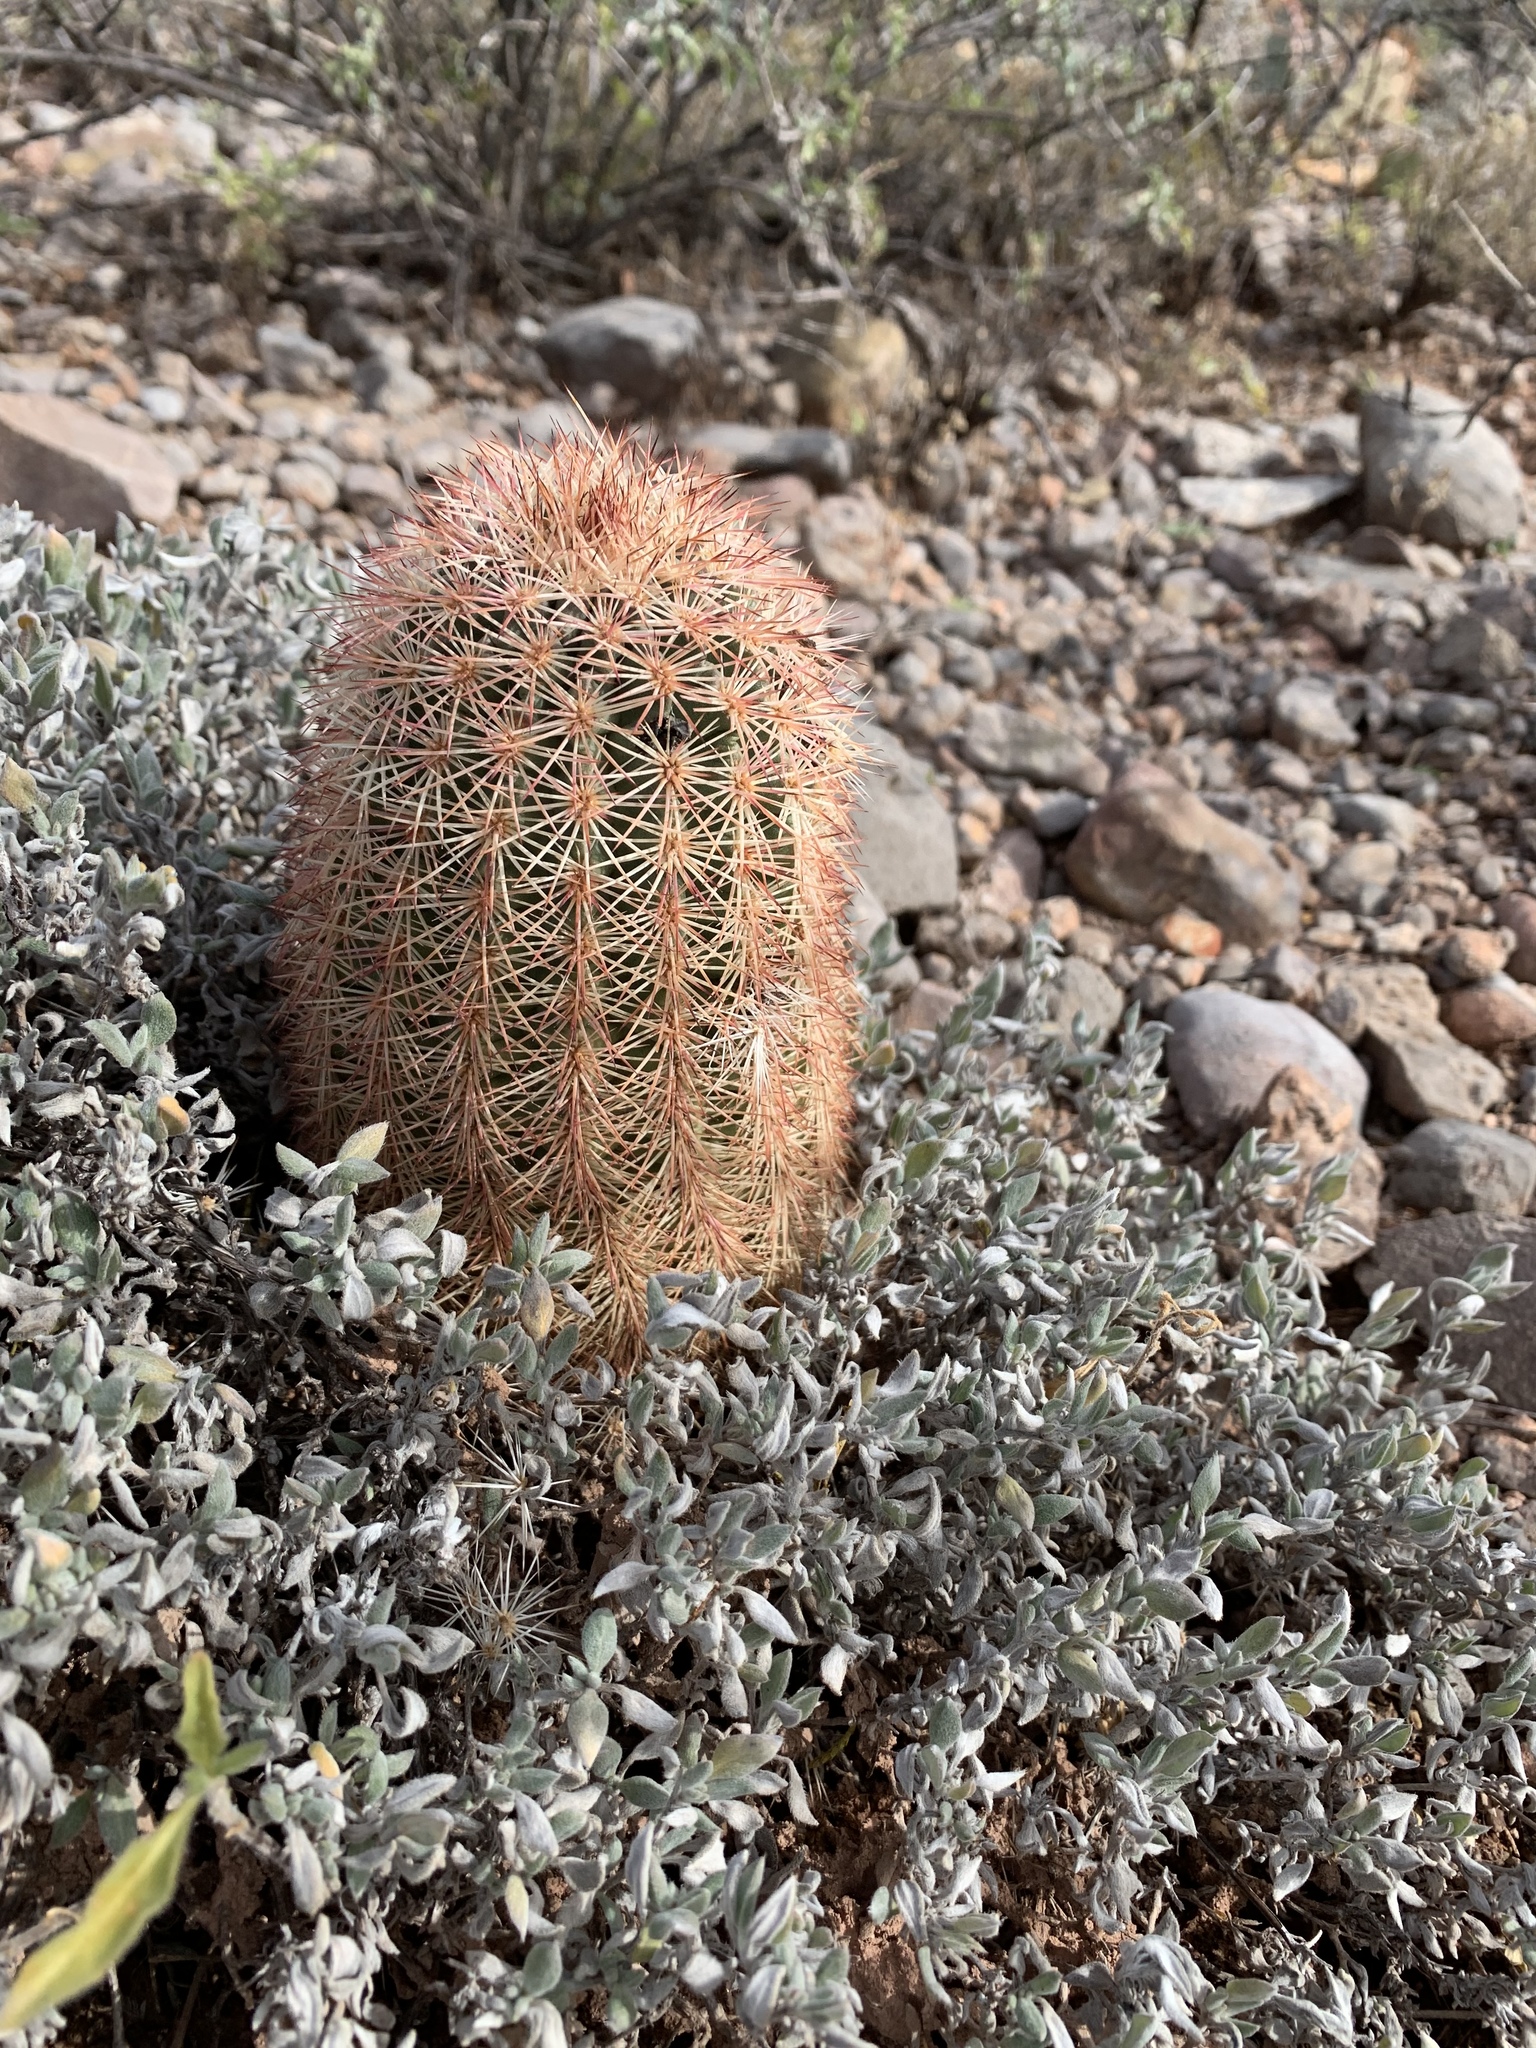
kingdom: Plantae
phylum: Tracheophyta
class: Magnoliopsida
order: Caryophyllales
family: Cactaceae
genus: Echinocereus
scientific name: Echinocereus dasyacanthus
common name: Spiny hedgehog cactus
